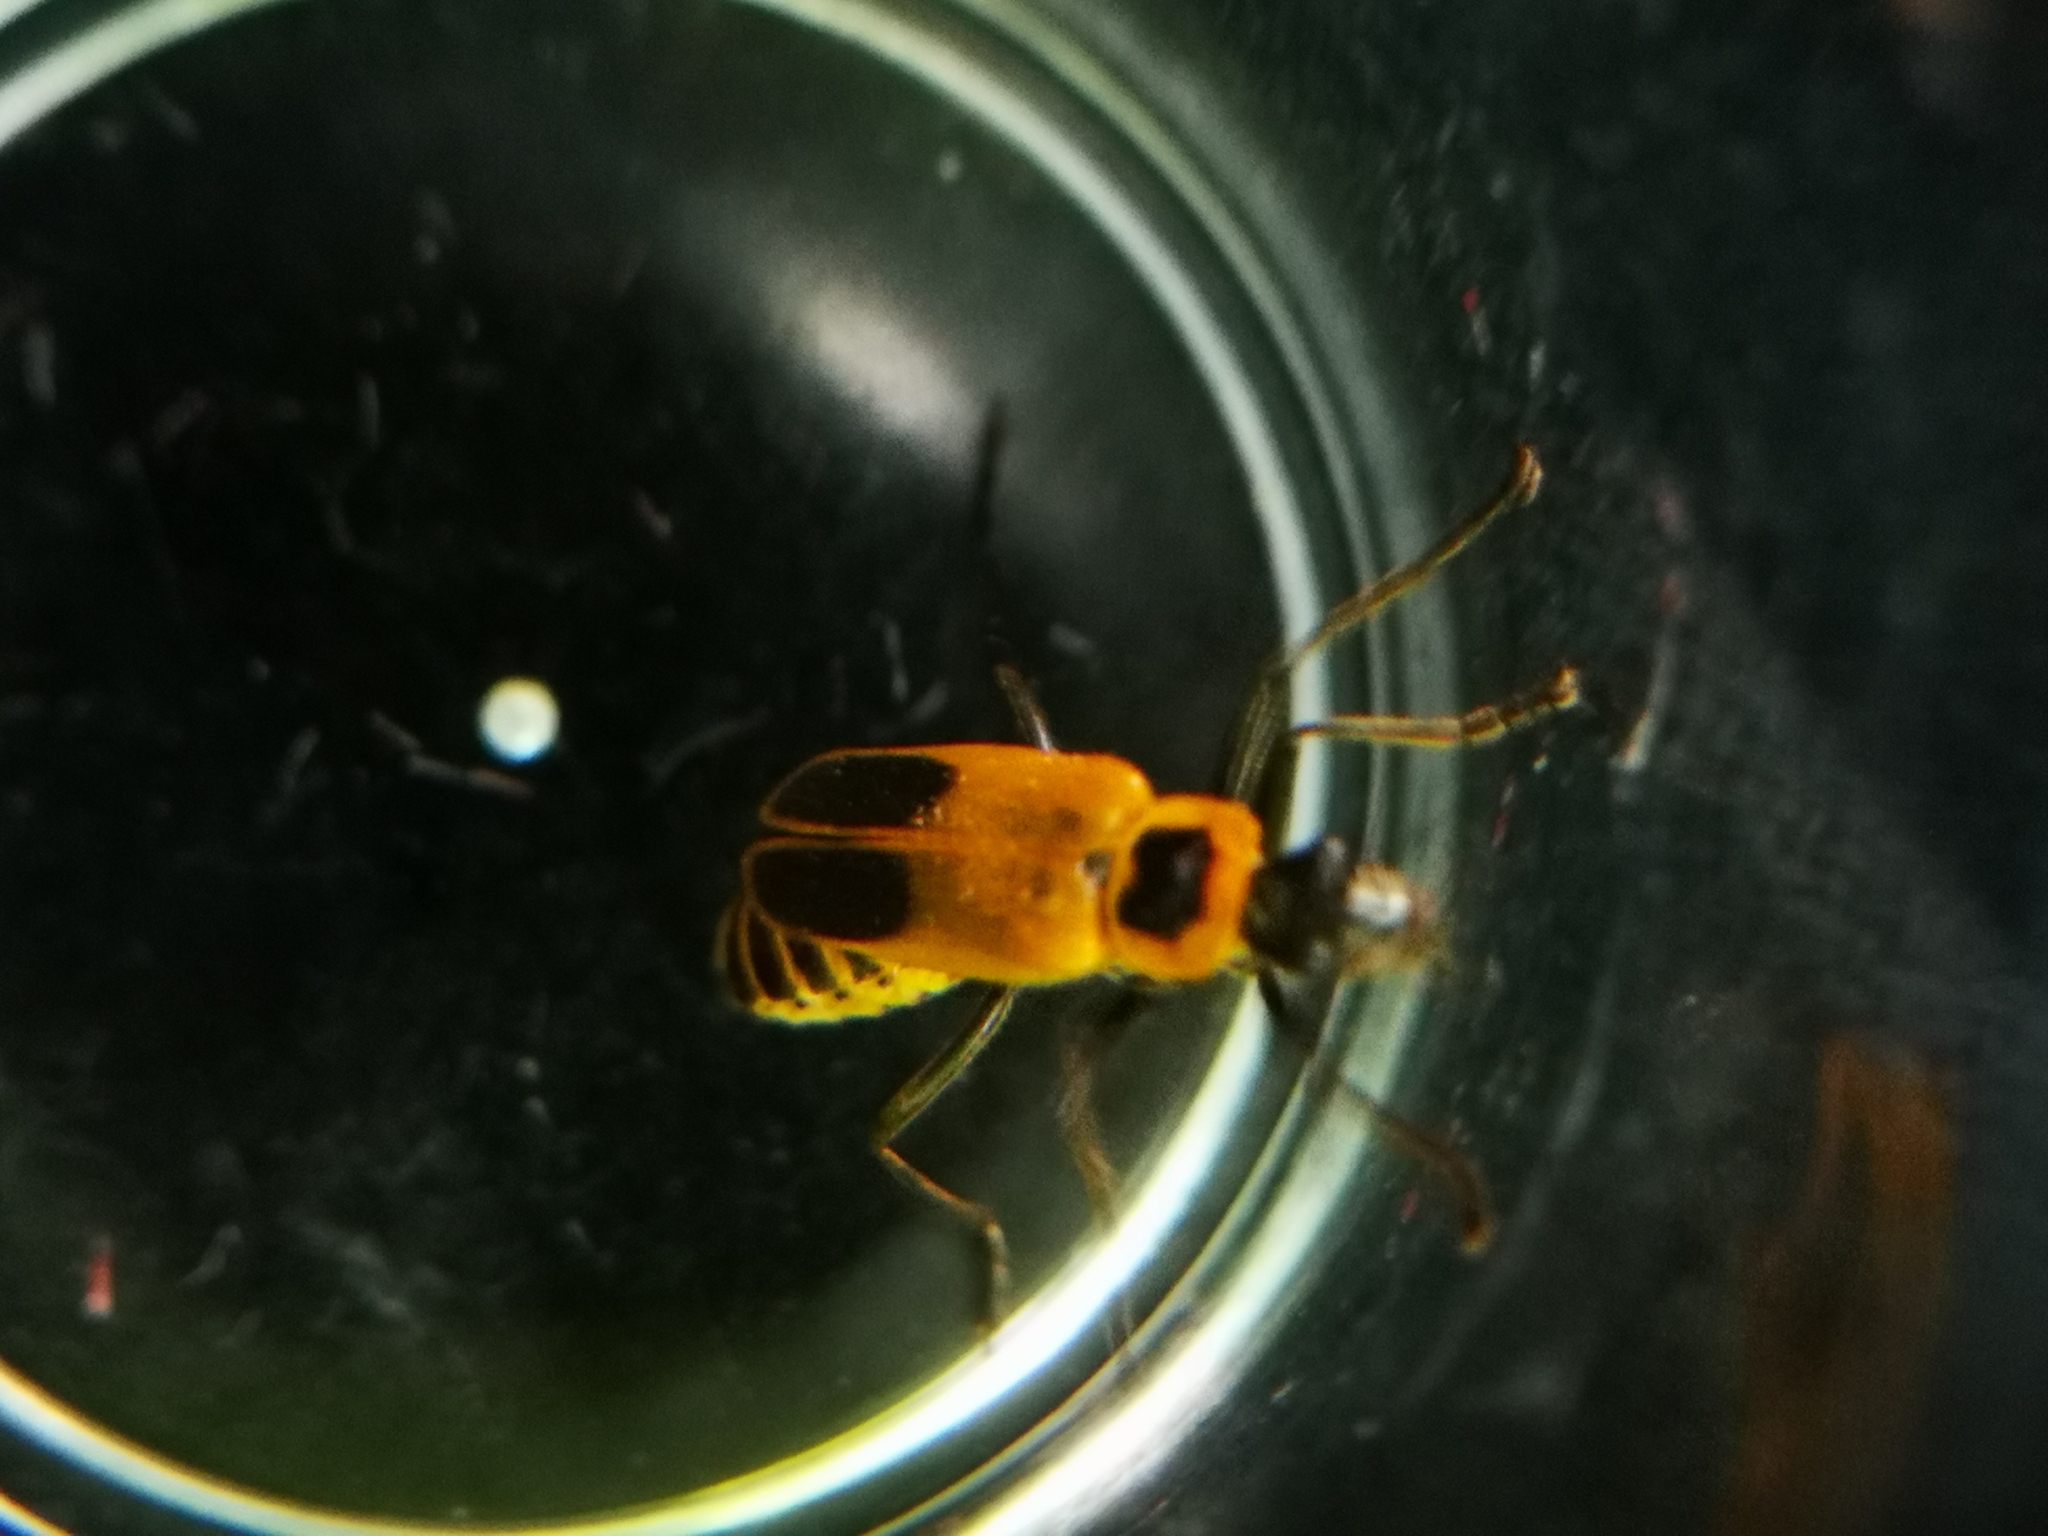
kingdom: Animalia
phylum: Arthropoda
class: Insecta
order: Coleoptera
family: Cantharidae
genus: Chauliognathus
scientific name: Chauliognathus pensylvanicus
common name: Goldenrod soldier beetle
